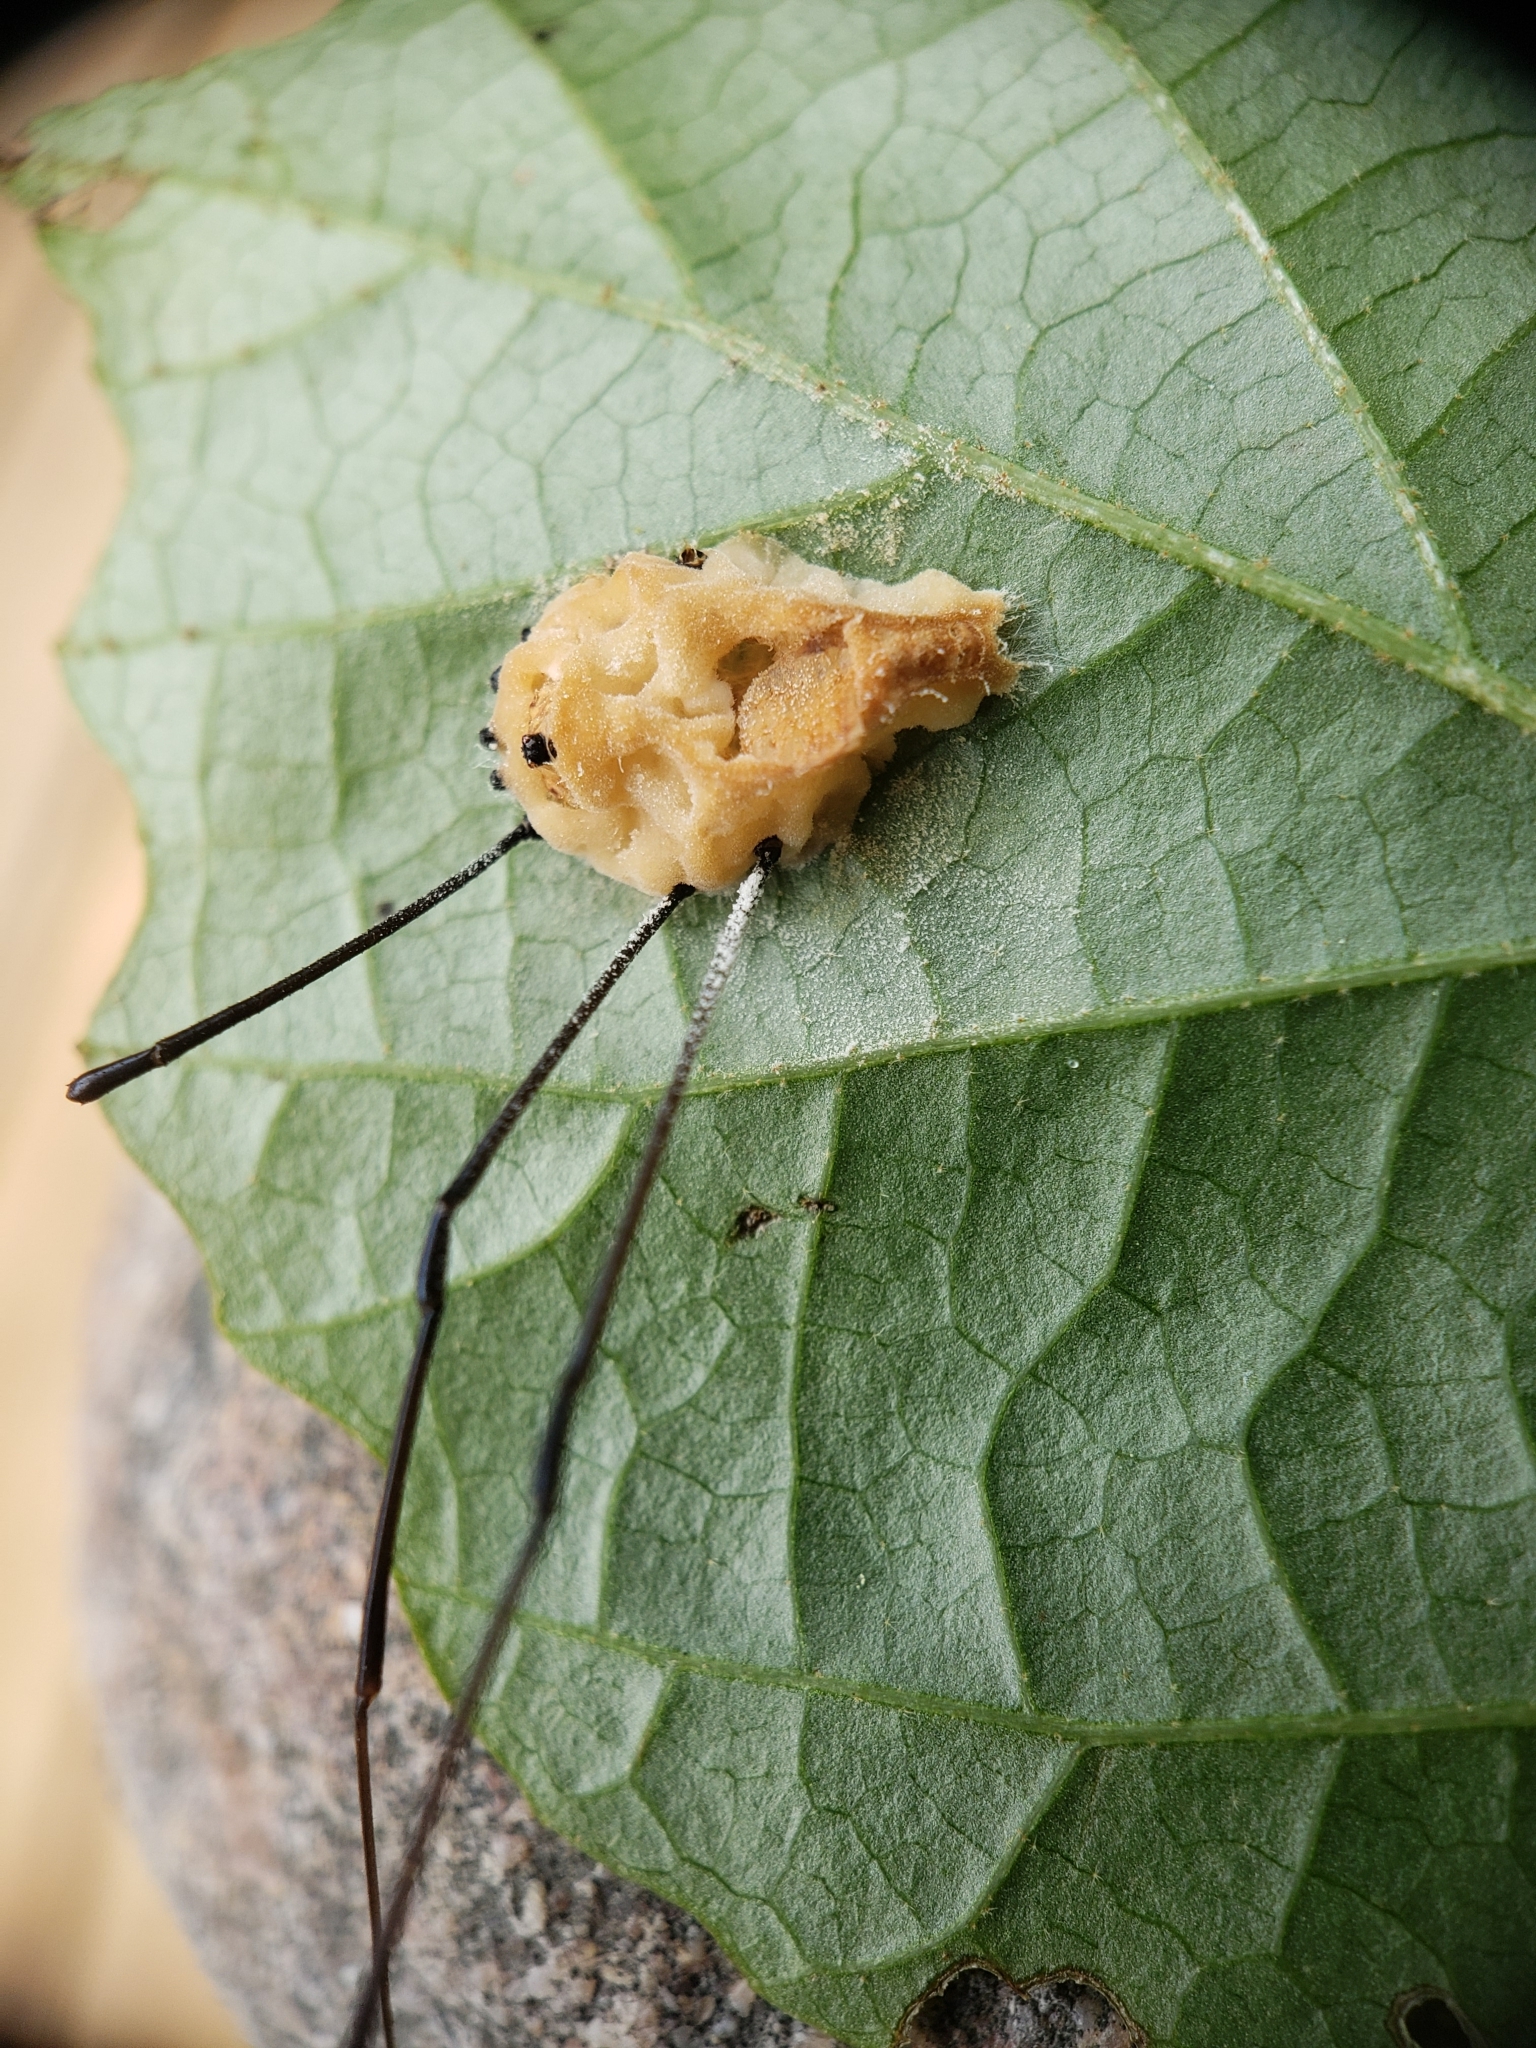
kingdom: Fungi
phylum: Entomophthoromycota
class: Entomophthoromycetes
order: Entomophthorales
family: Entomophthoraceae
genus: Pandora
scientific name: Pandora phalangicida
